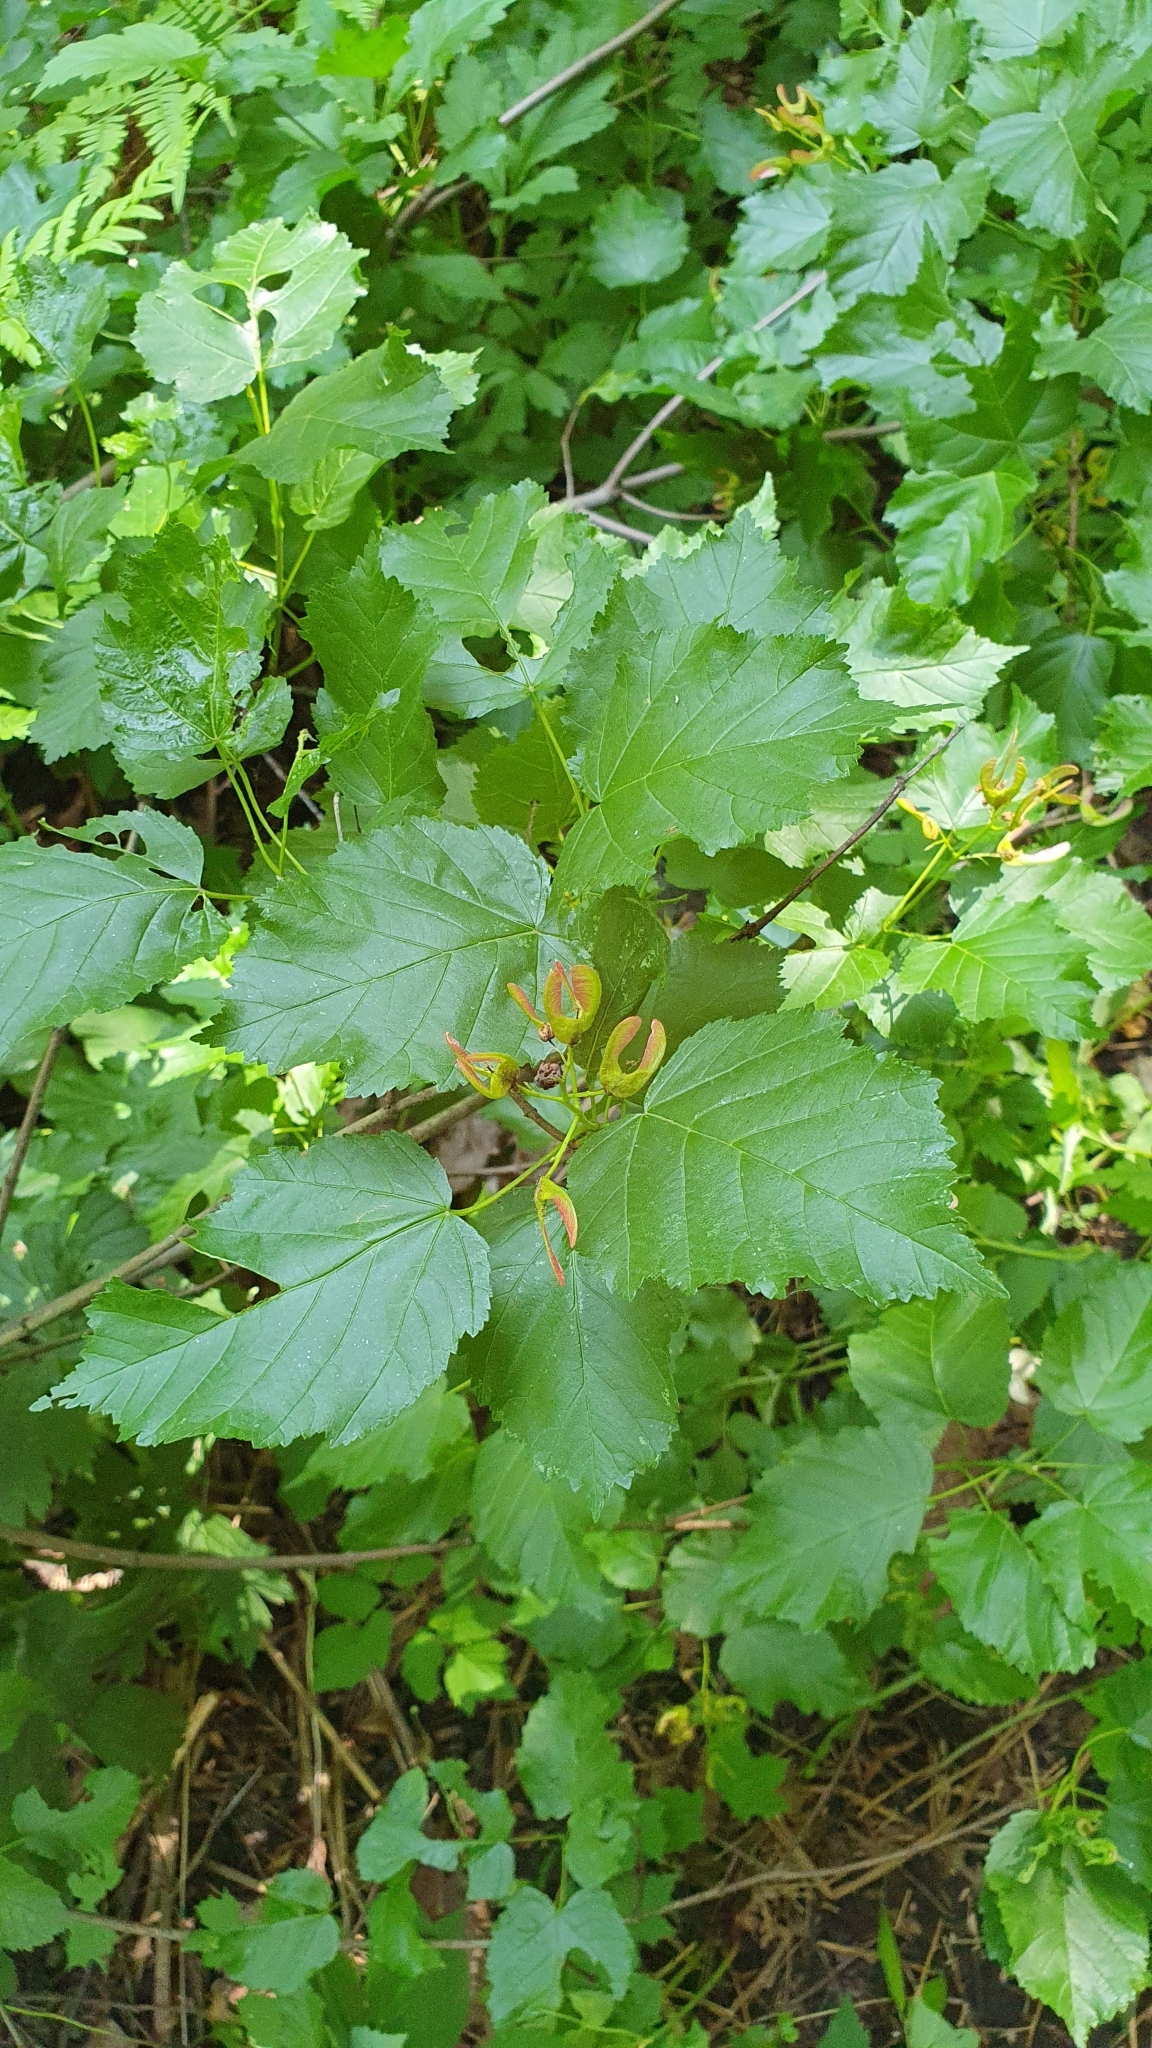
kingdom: Plantae
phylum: Tracheophyta
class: Magnoliopsida
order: Sapindales
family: Sapindaceae
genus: Acer
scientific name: Acer tataricum
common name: Tartar maple
